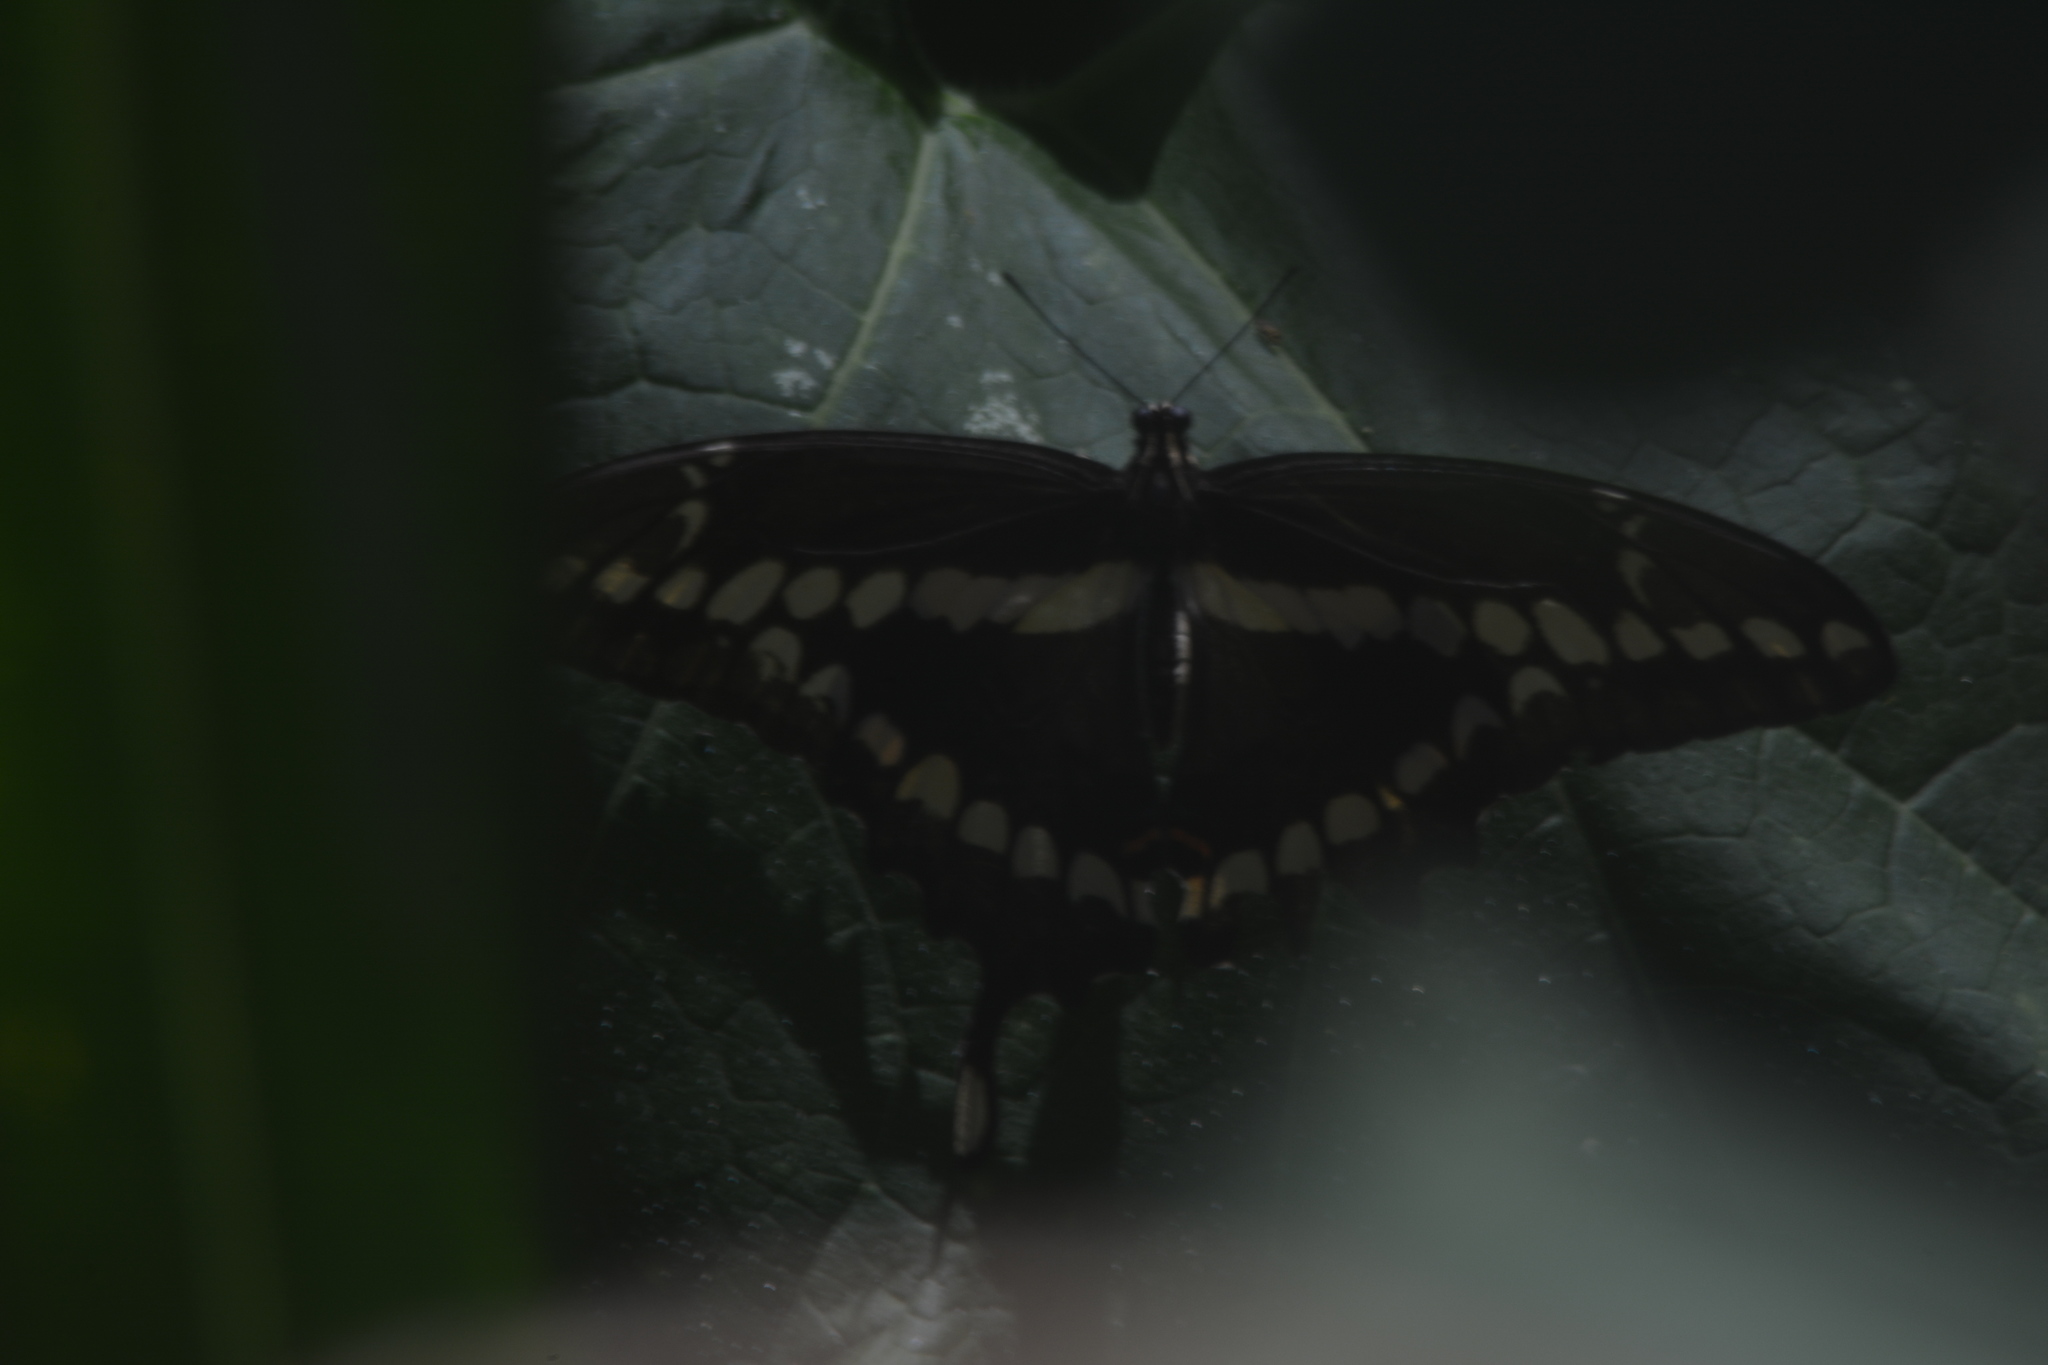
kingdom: Animalia
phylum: Arthropoda
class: Insecta
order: Lepidoptera
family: Papilionidae
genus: Papilio
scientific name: Papilio rumiko
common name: Western giant swallowtail
